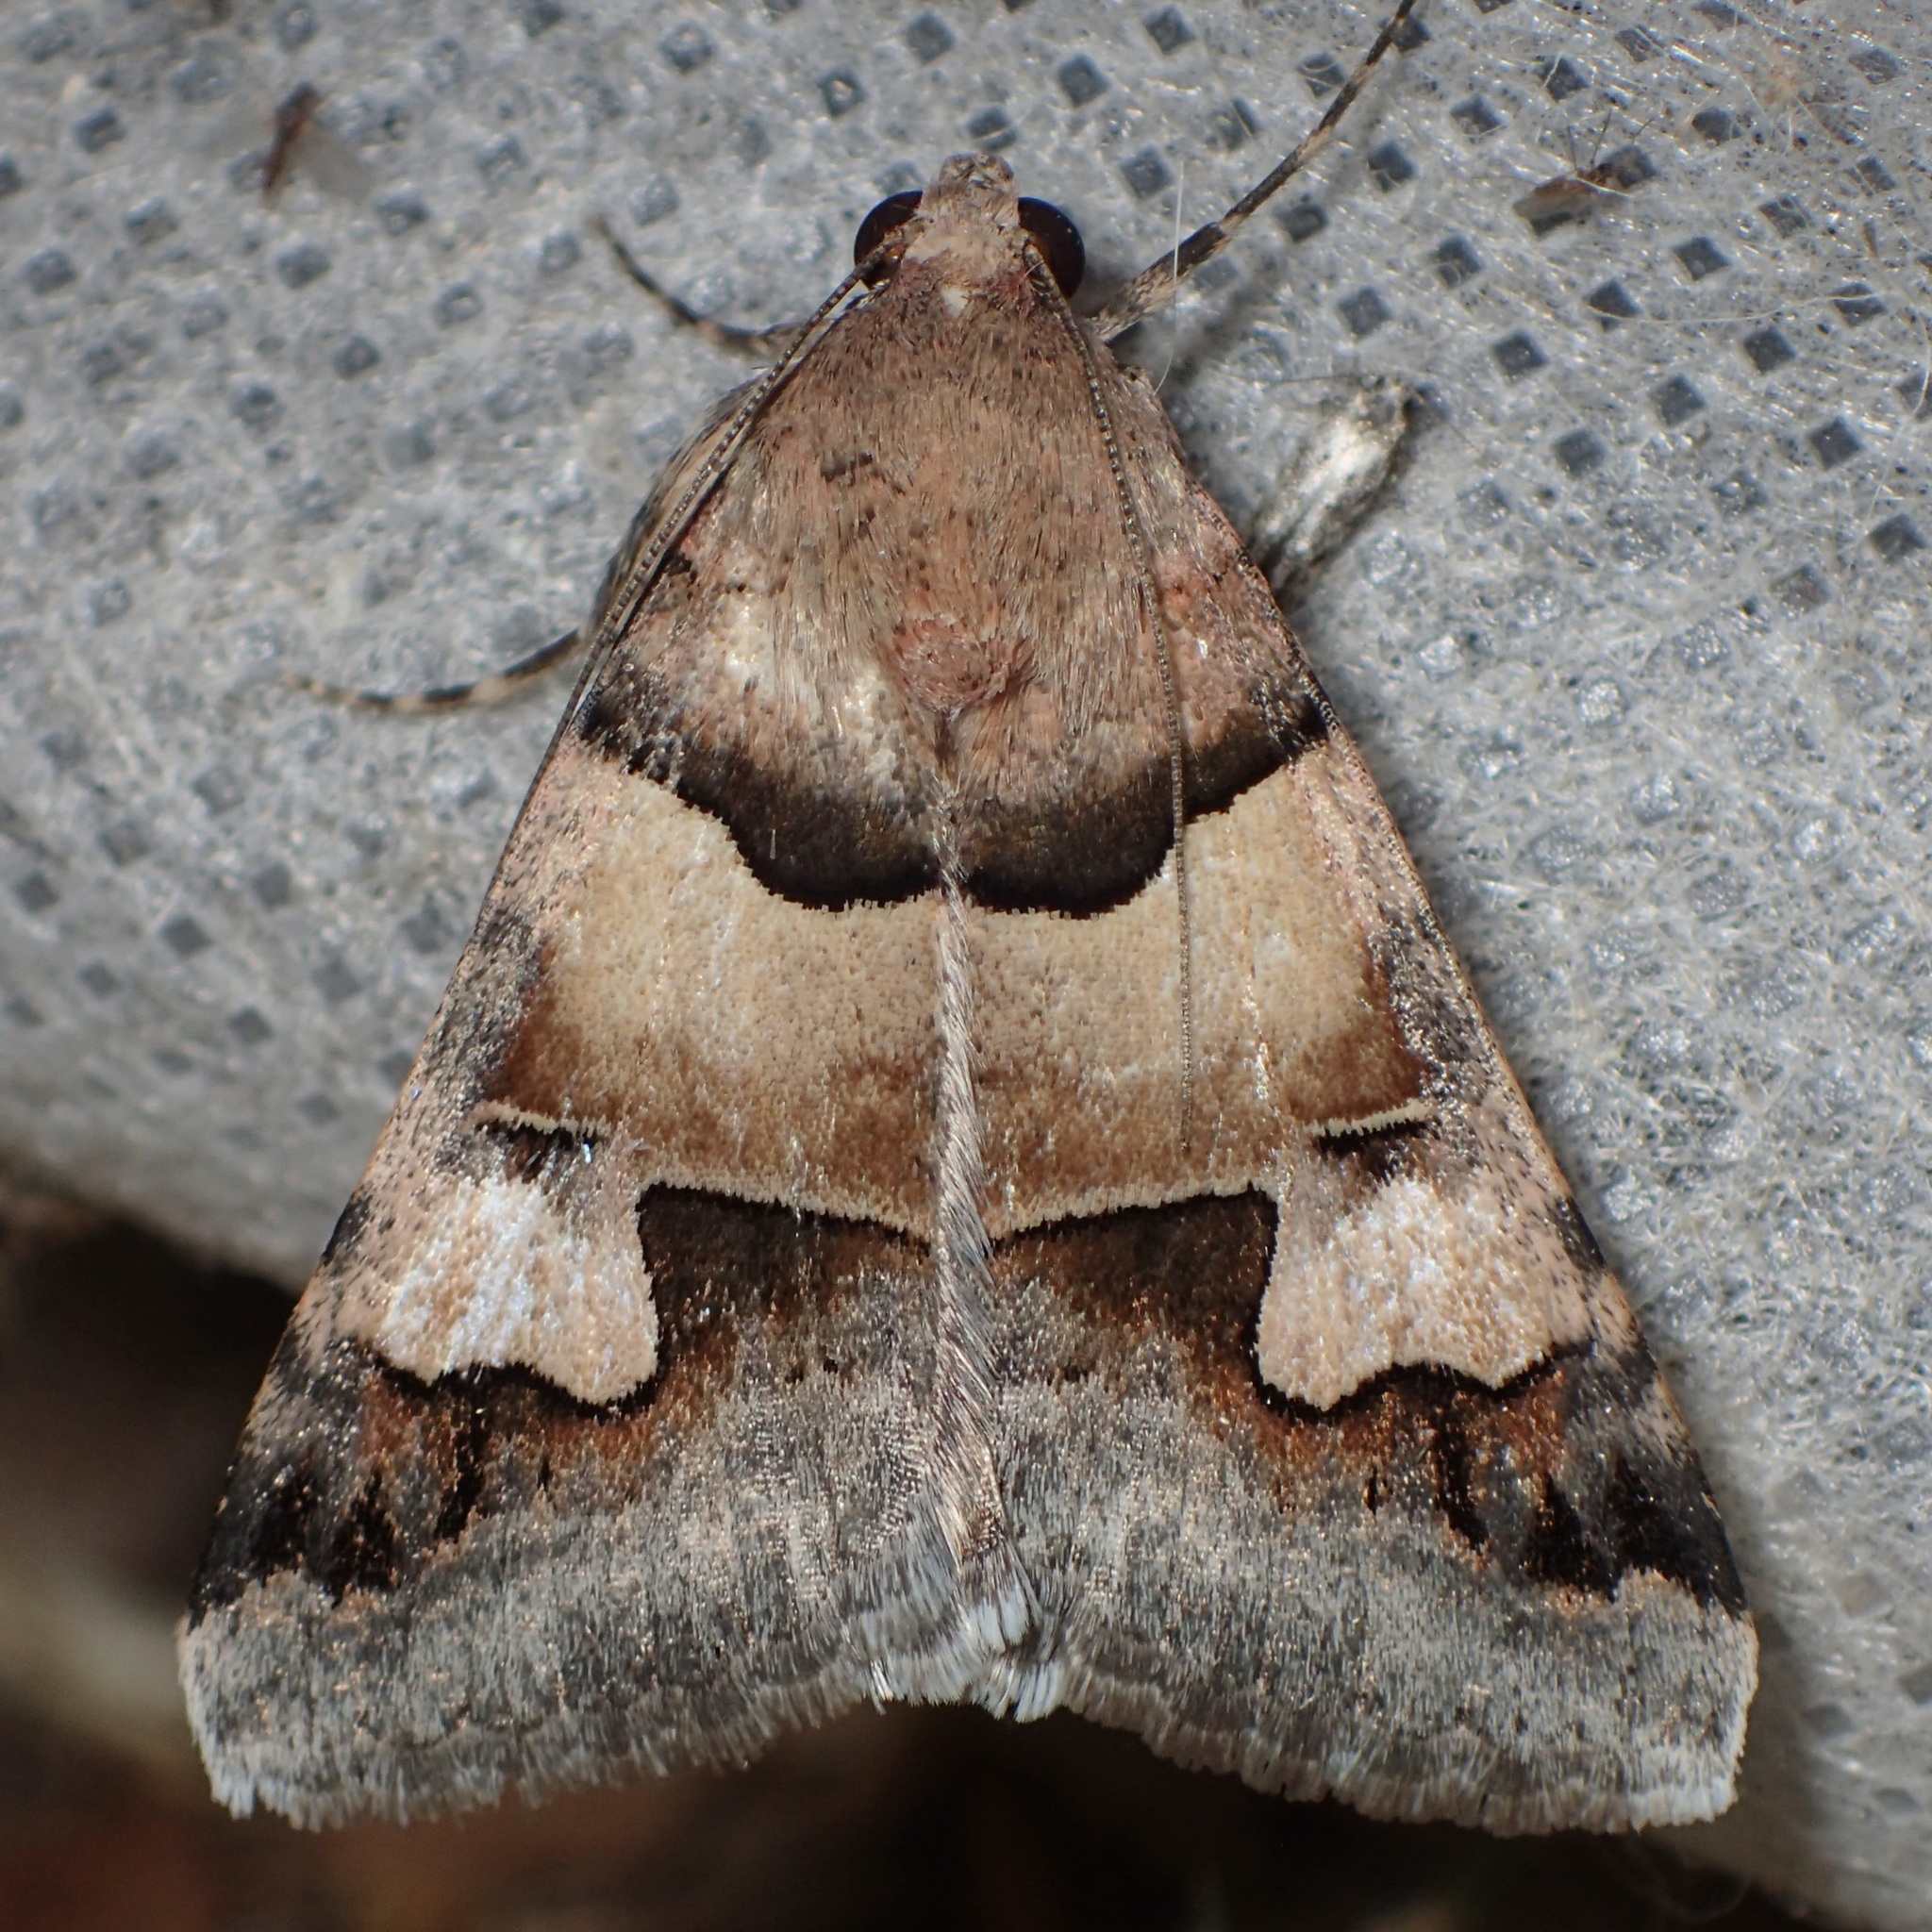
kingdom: Animalia
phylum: Arthropoda
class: Insecta
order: Lepidoptera
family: Erebidae
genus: Drasteria
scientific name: Drasteria pallescens
